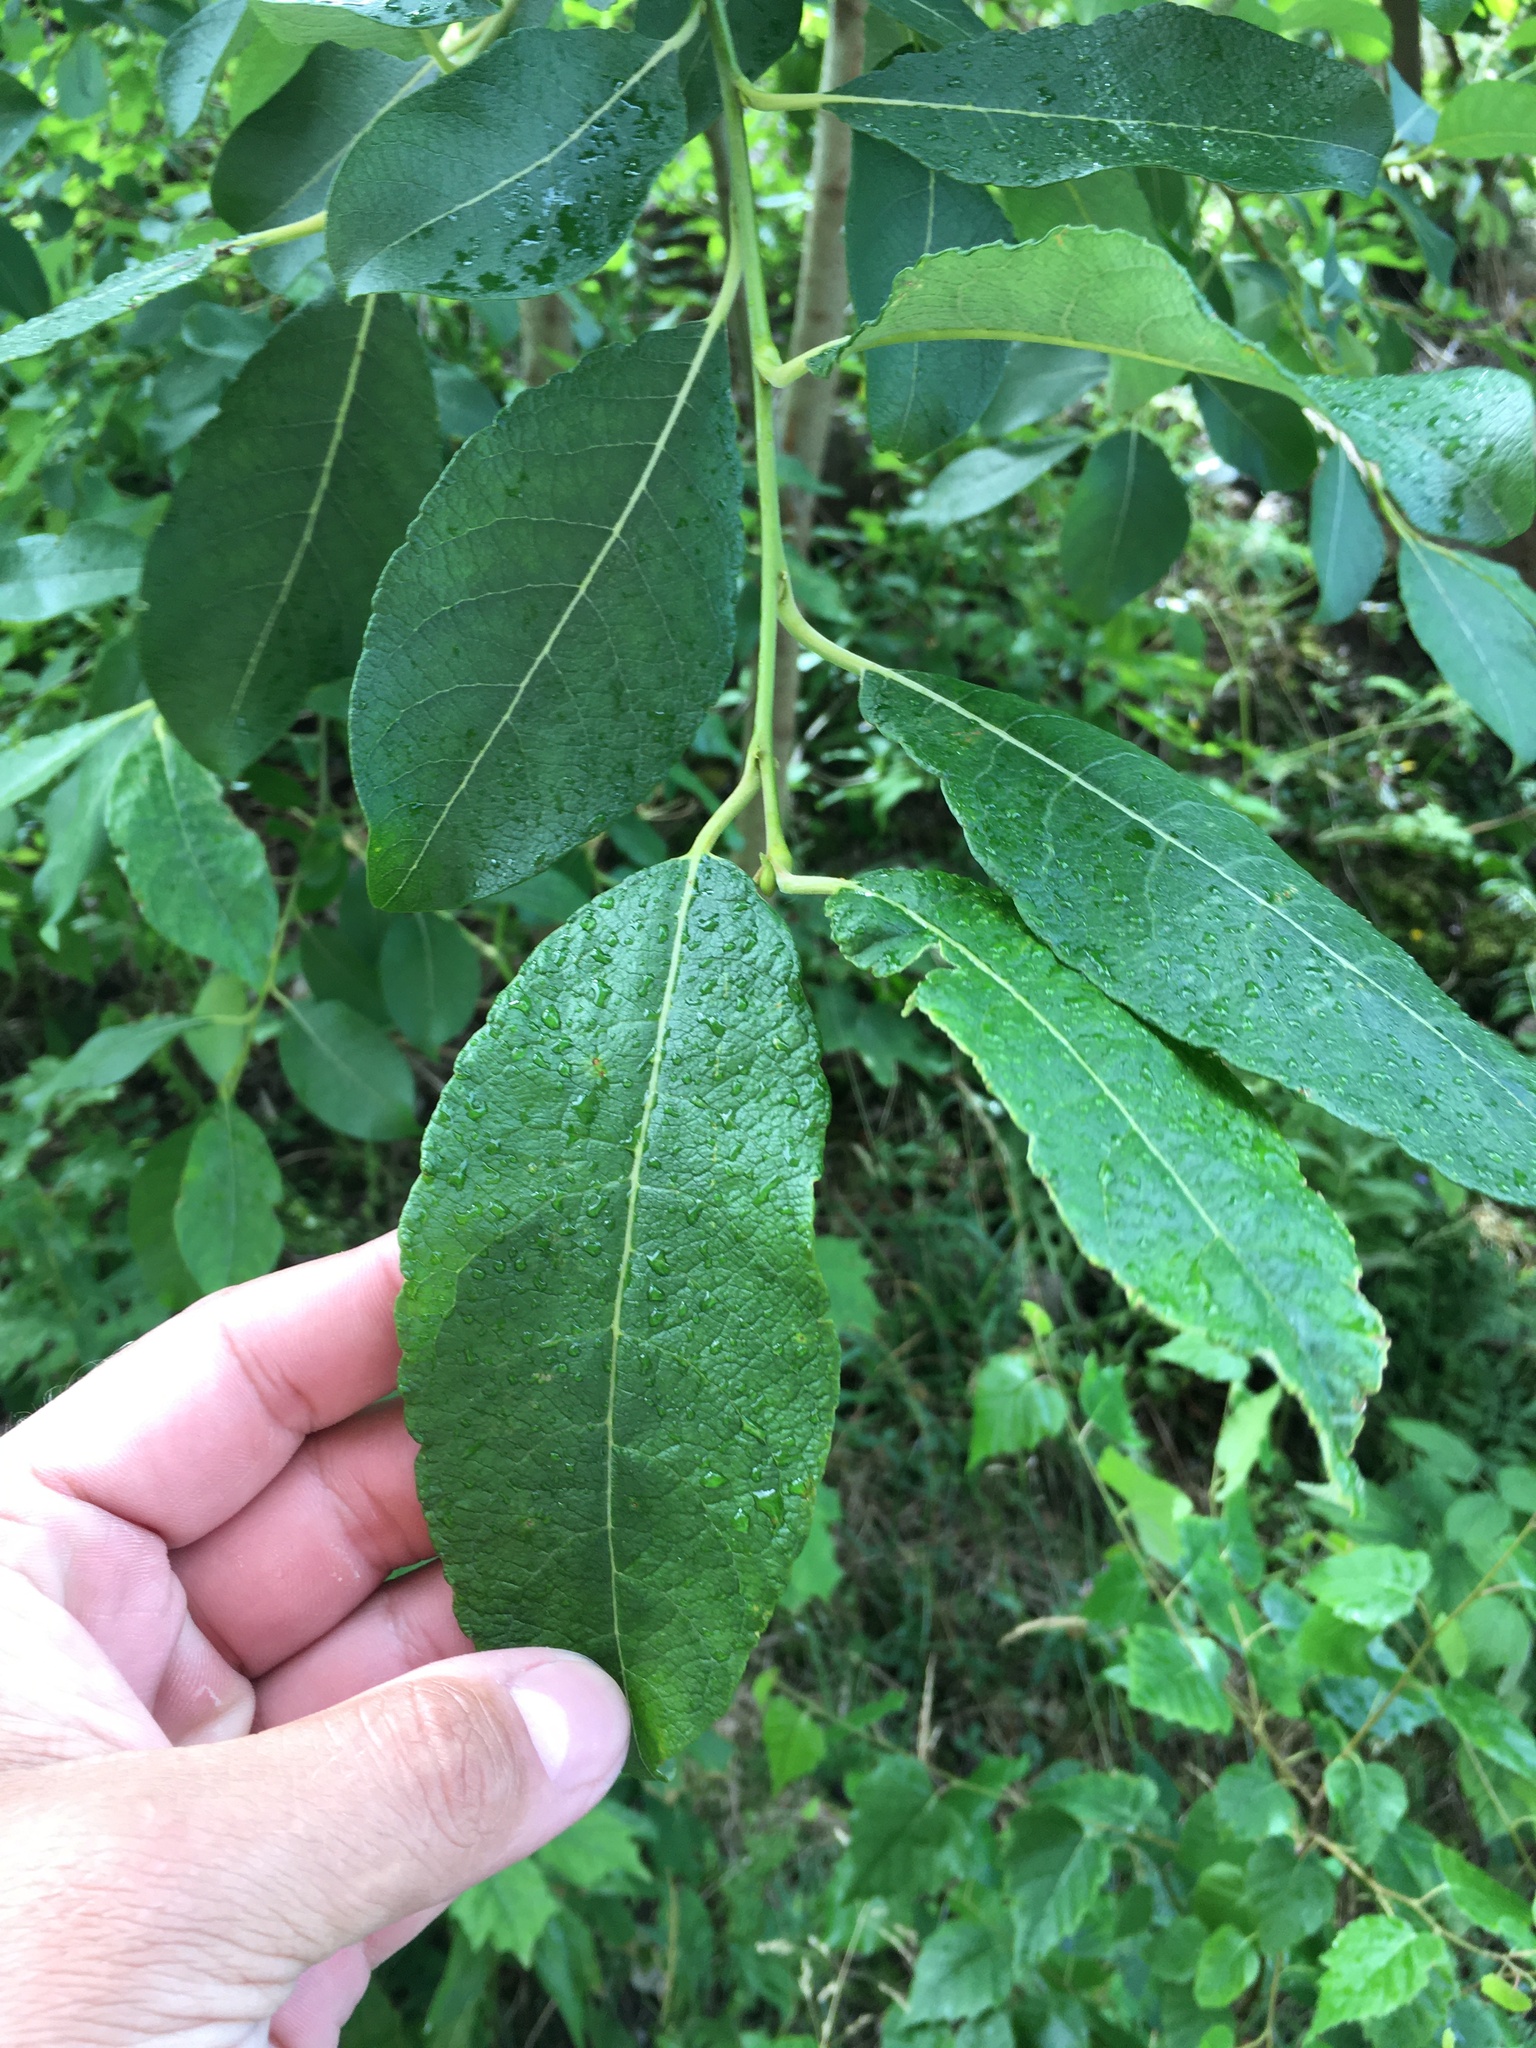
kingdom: Plantae
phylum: Tracheophyta
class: Magnoliopsida
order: Malpighiales
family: Salicaceae
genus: Salix
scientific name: Salix caprea
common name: Goat willow
